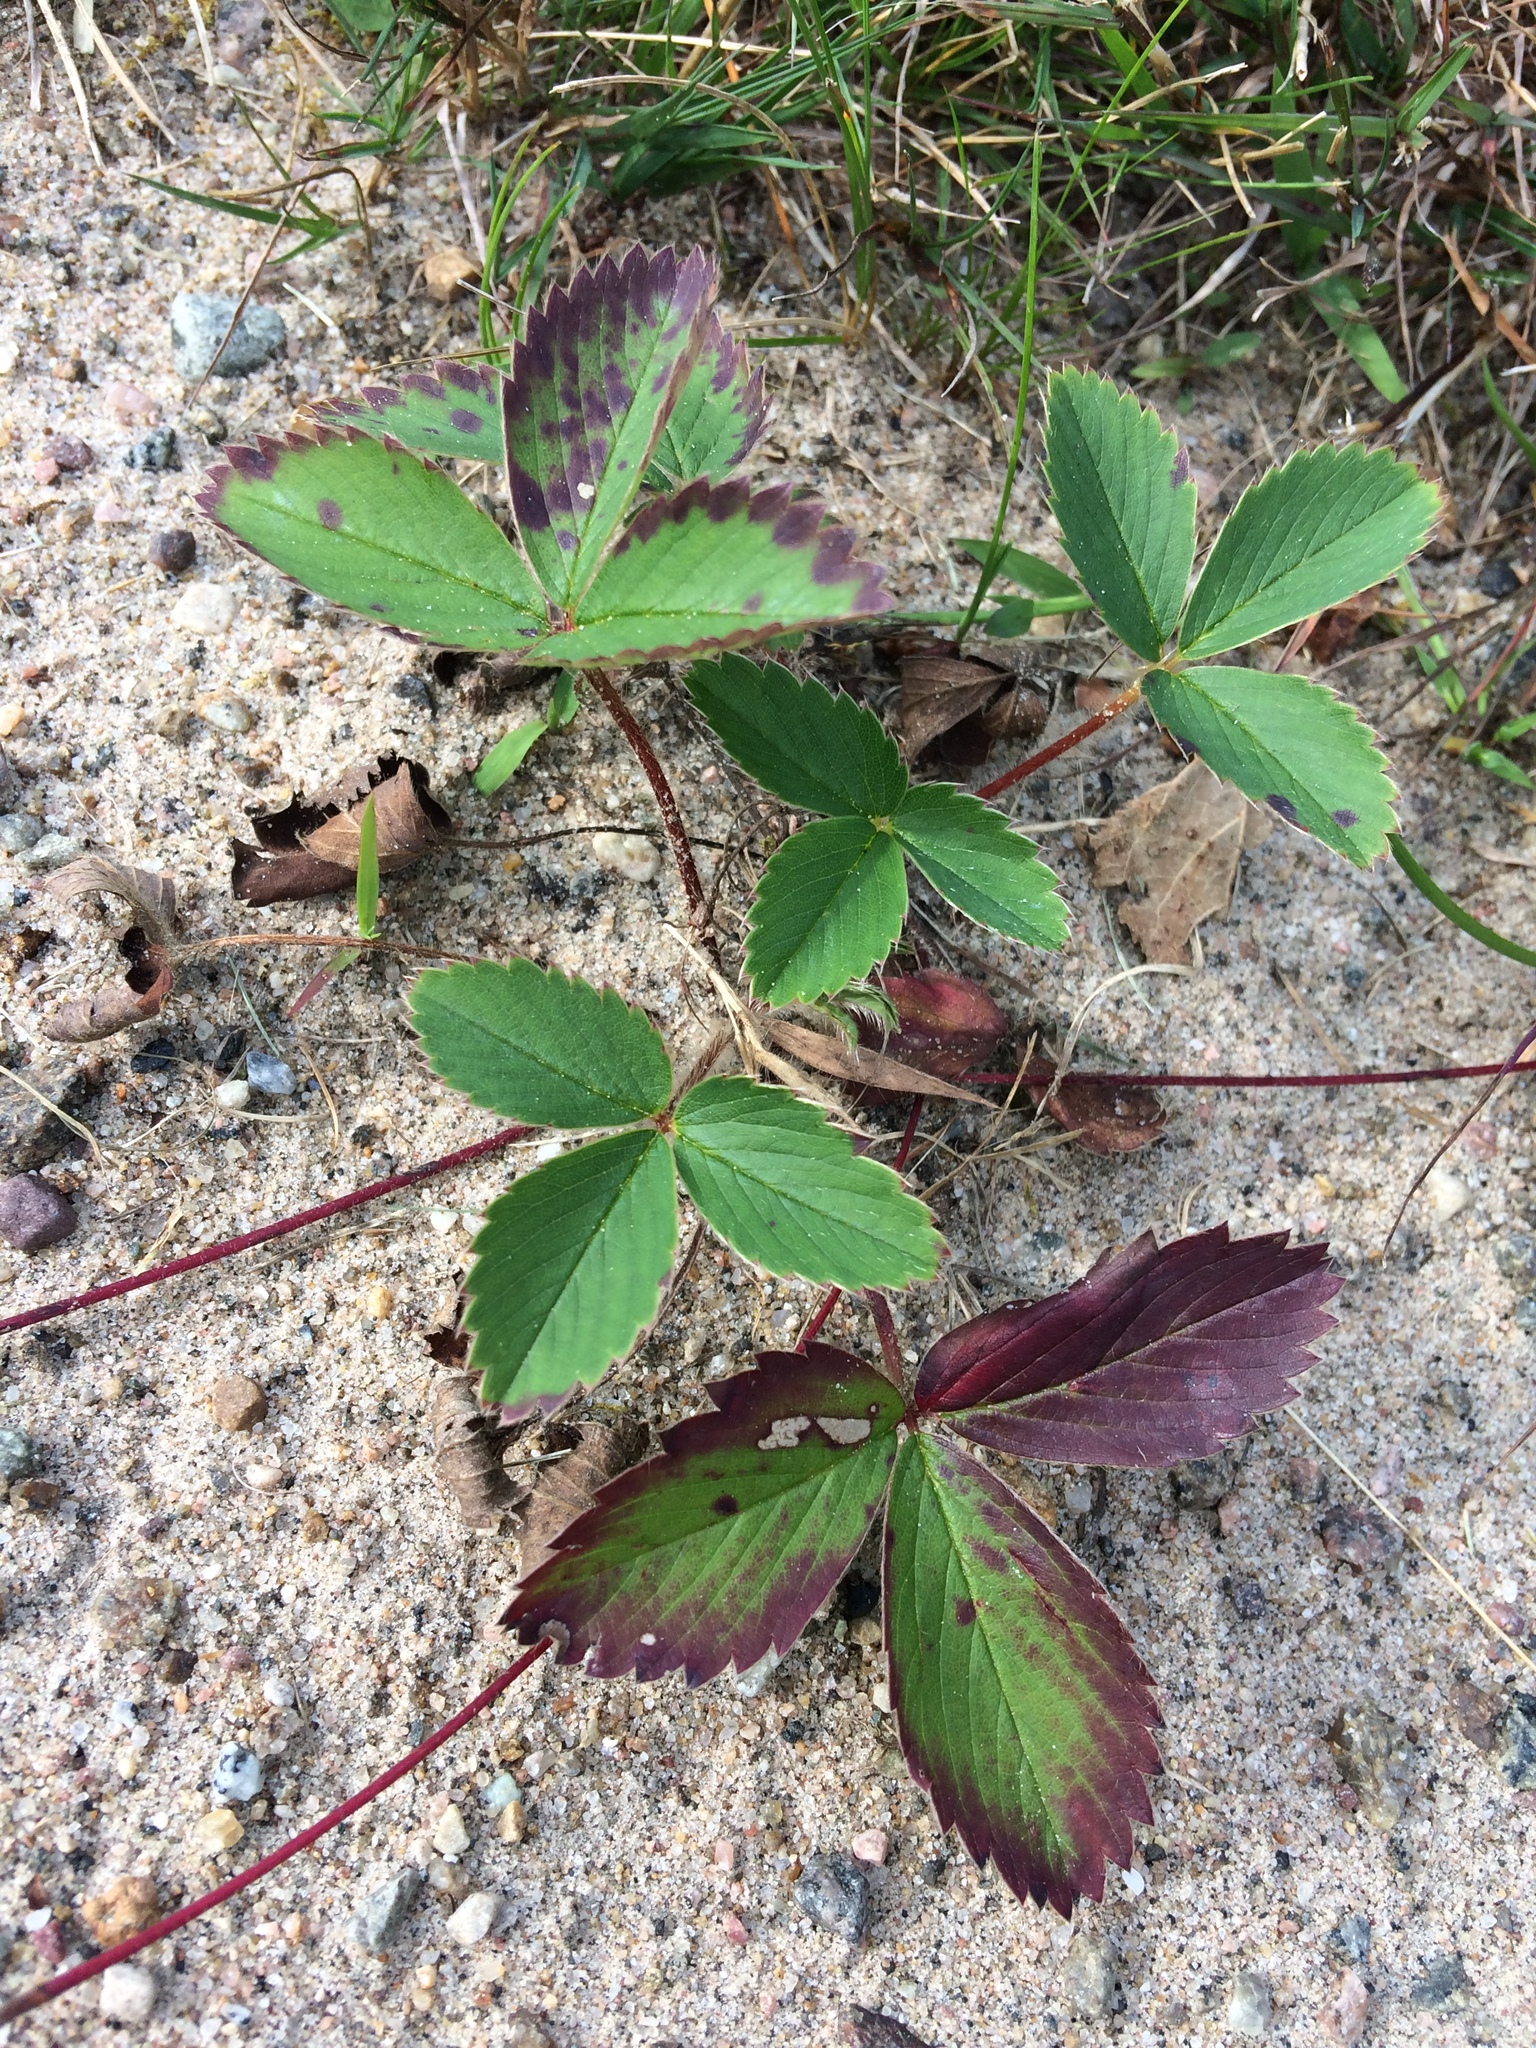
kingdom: Plantae
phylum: Tracheophyta
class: Magnoliopsida
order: Rosales
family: Rosaceae
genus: Fragaria
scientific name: Fragaria virginiana
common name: Thickleaved wild strawberry
